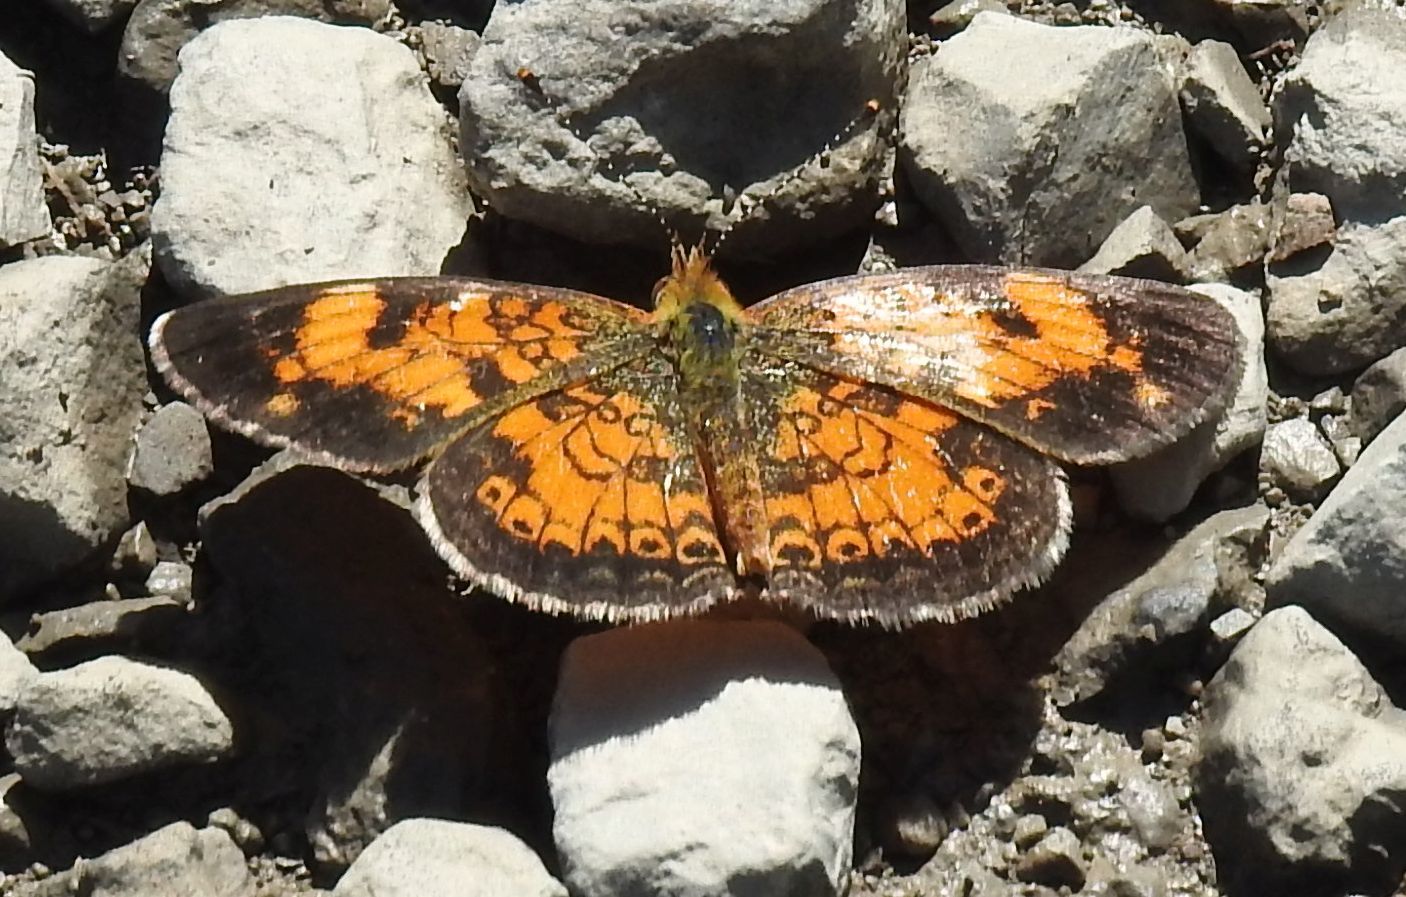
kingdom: Animalia
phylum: Arthropoda
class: Insecta
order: Lepidoptera
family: Nymphalidae
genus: Phyciodes
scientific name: Phyciodes tharos
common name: Pearl crescent
